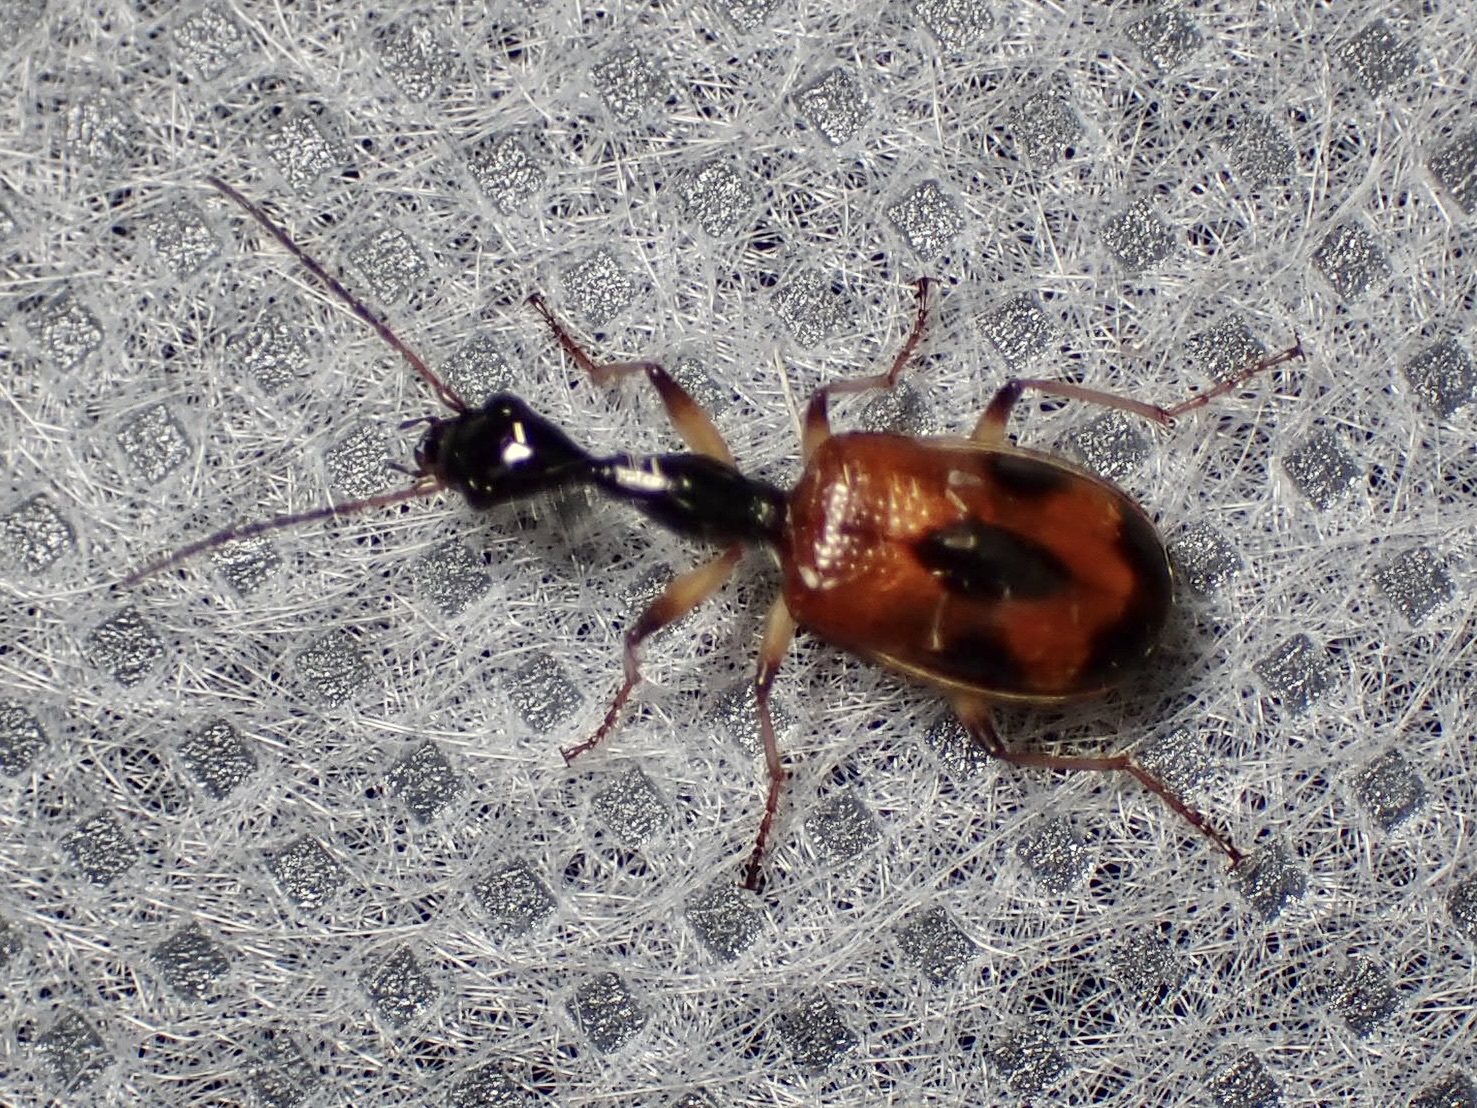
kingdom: Animalia
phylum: Arthropoda
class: Insecta
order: Coleoptera
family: Carabidae
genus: Colliuris
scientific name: Colliuris pensylvanica
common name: Long-necked ground beetle
